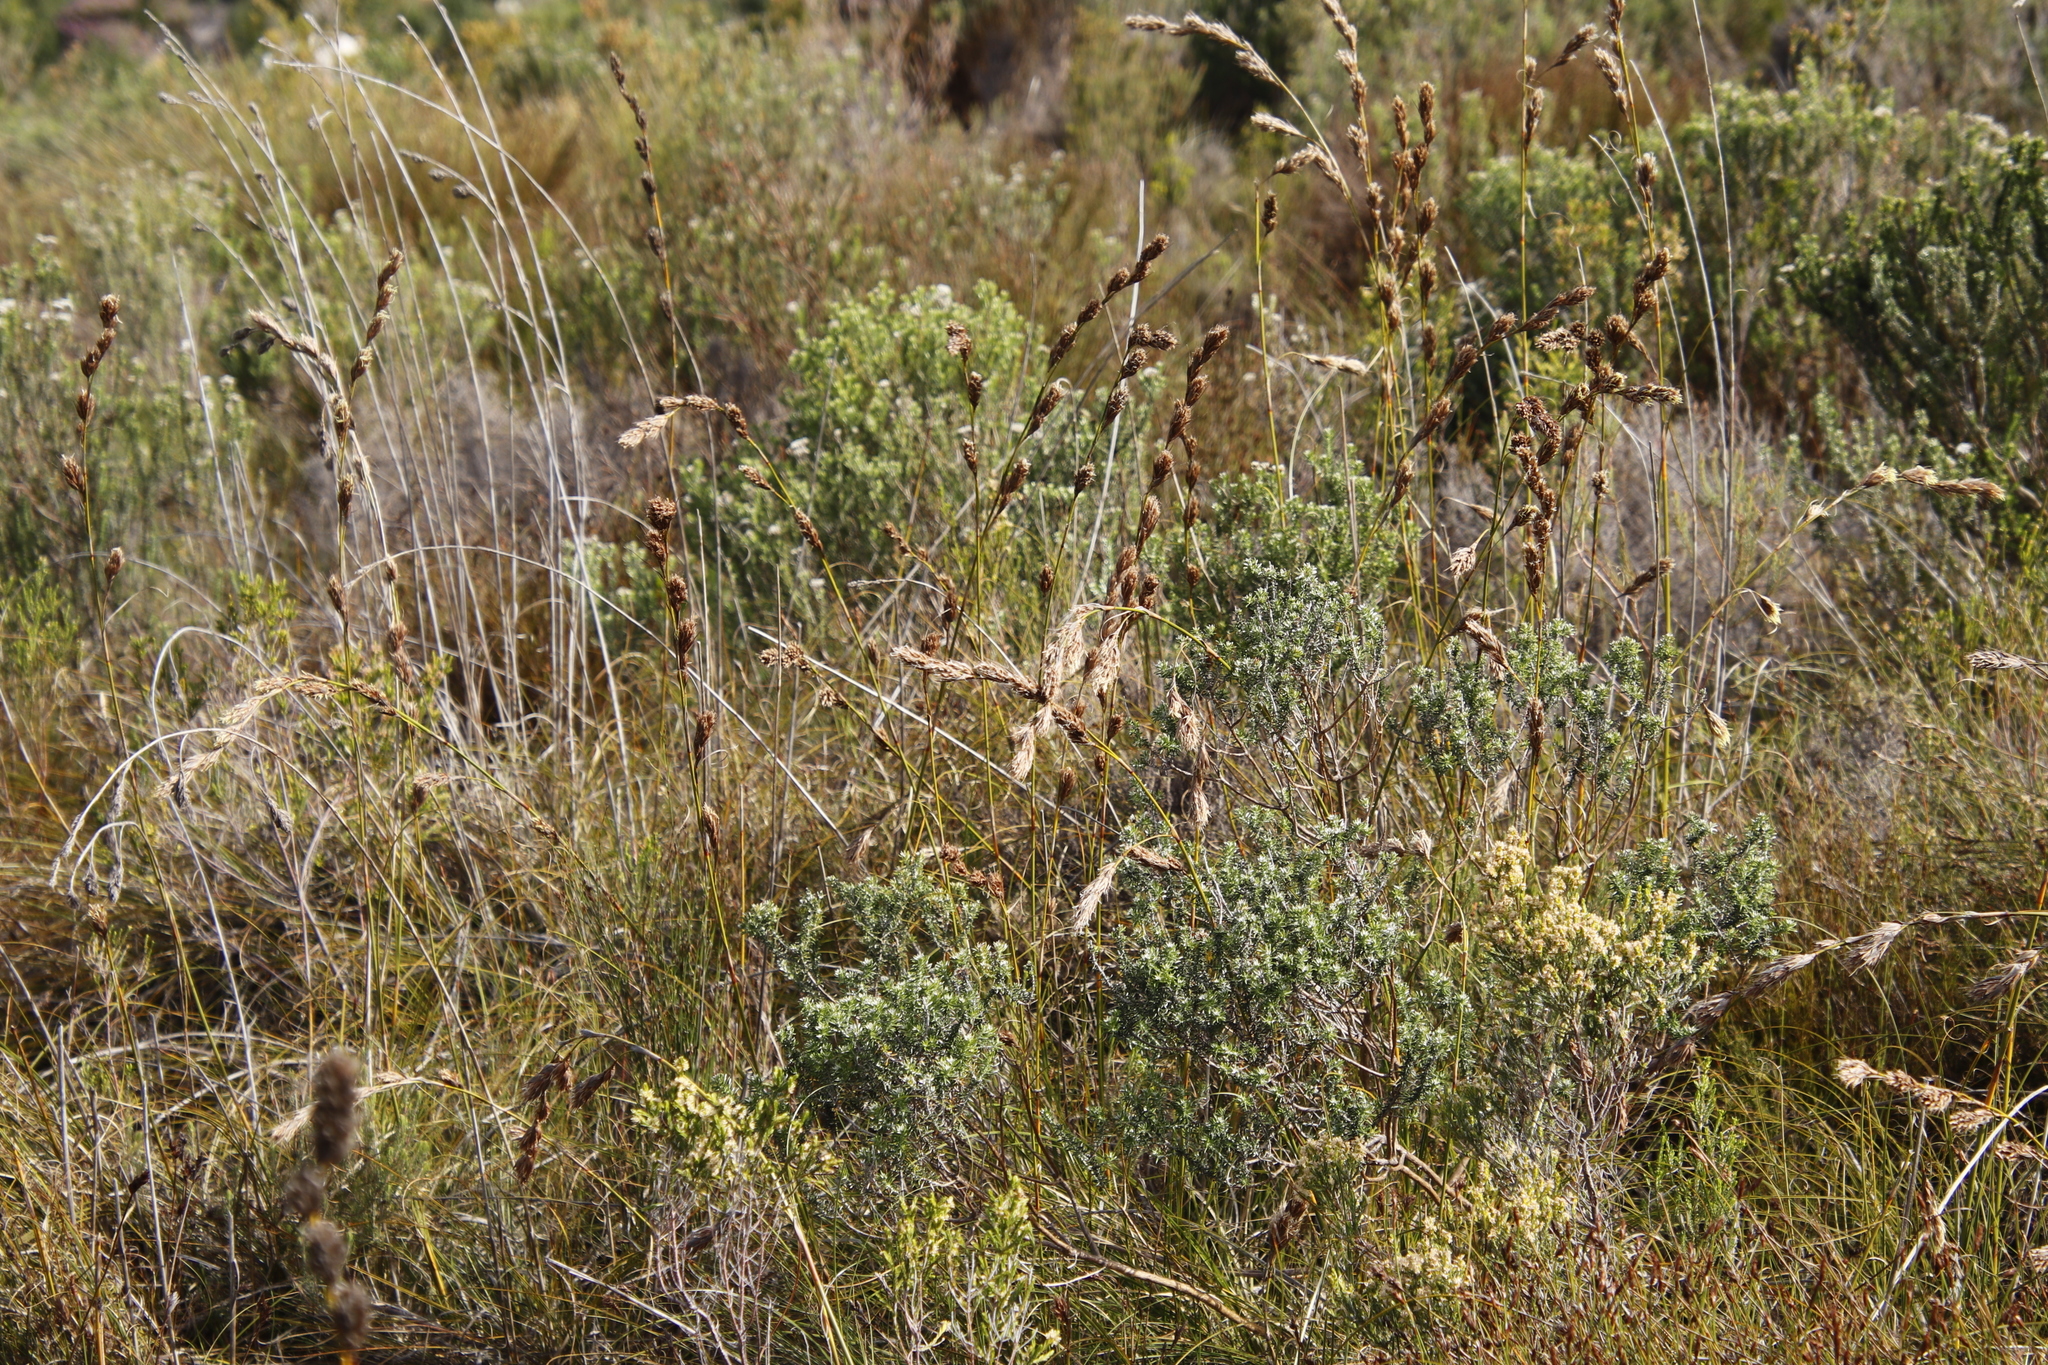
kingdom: Plantae
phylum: Tracheophyta
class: Liliopsida
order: Poales
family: Cyperaceae
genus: Tetraria
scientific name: Tetraria bromoides
